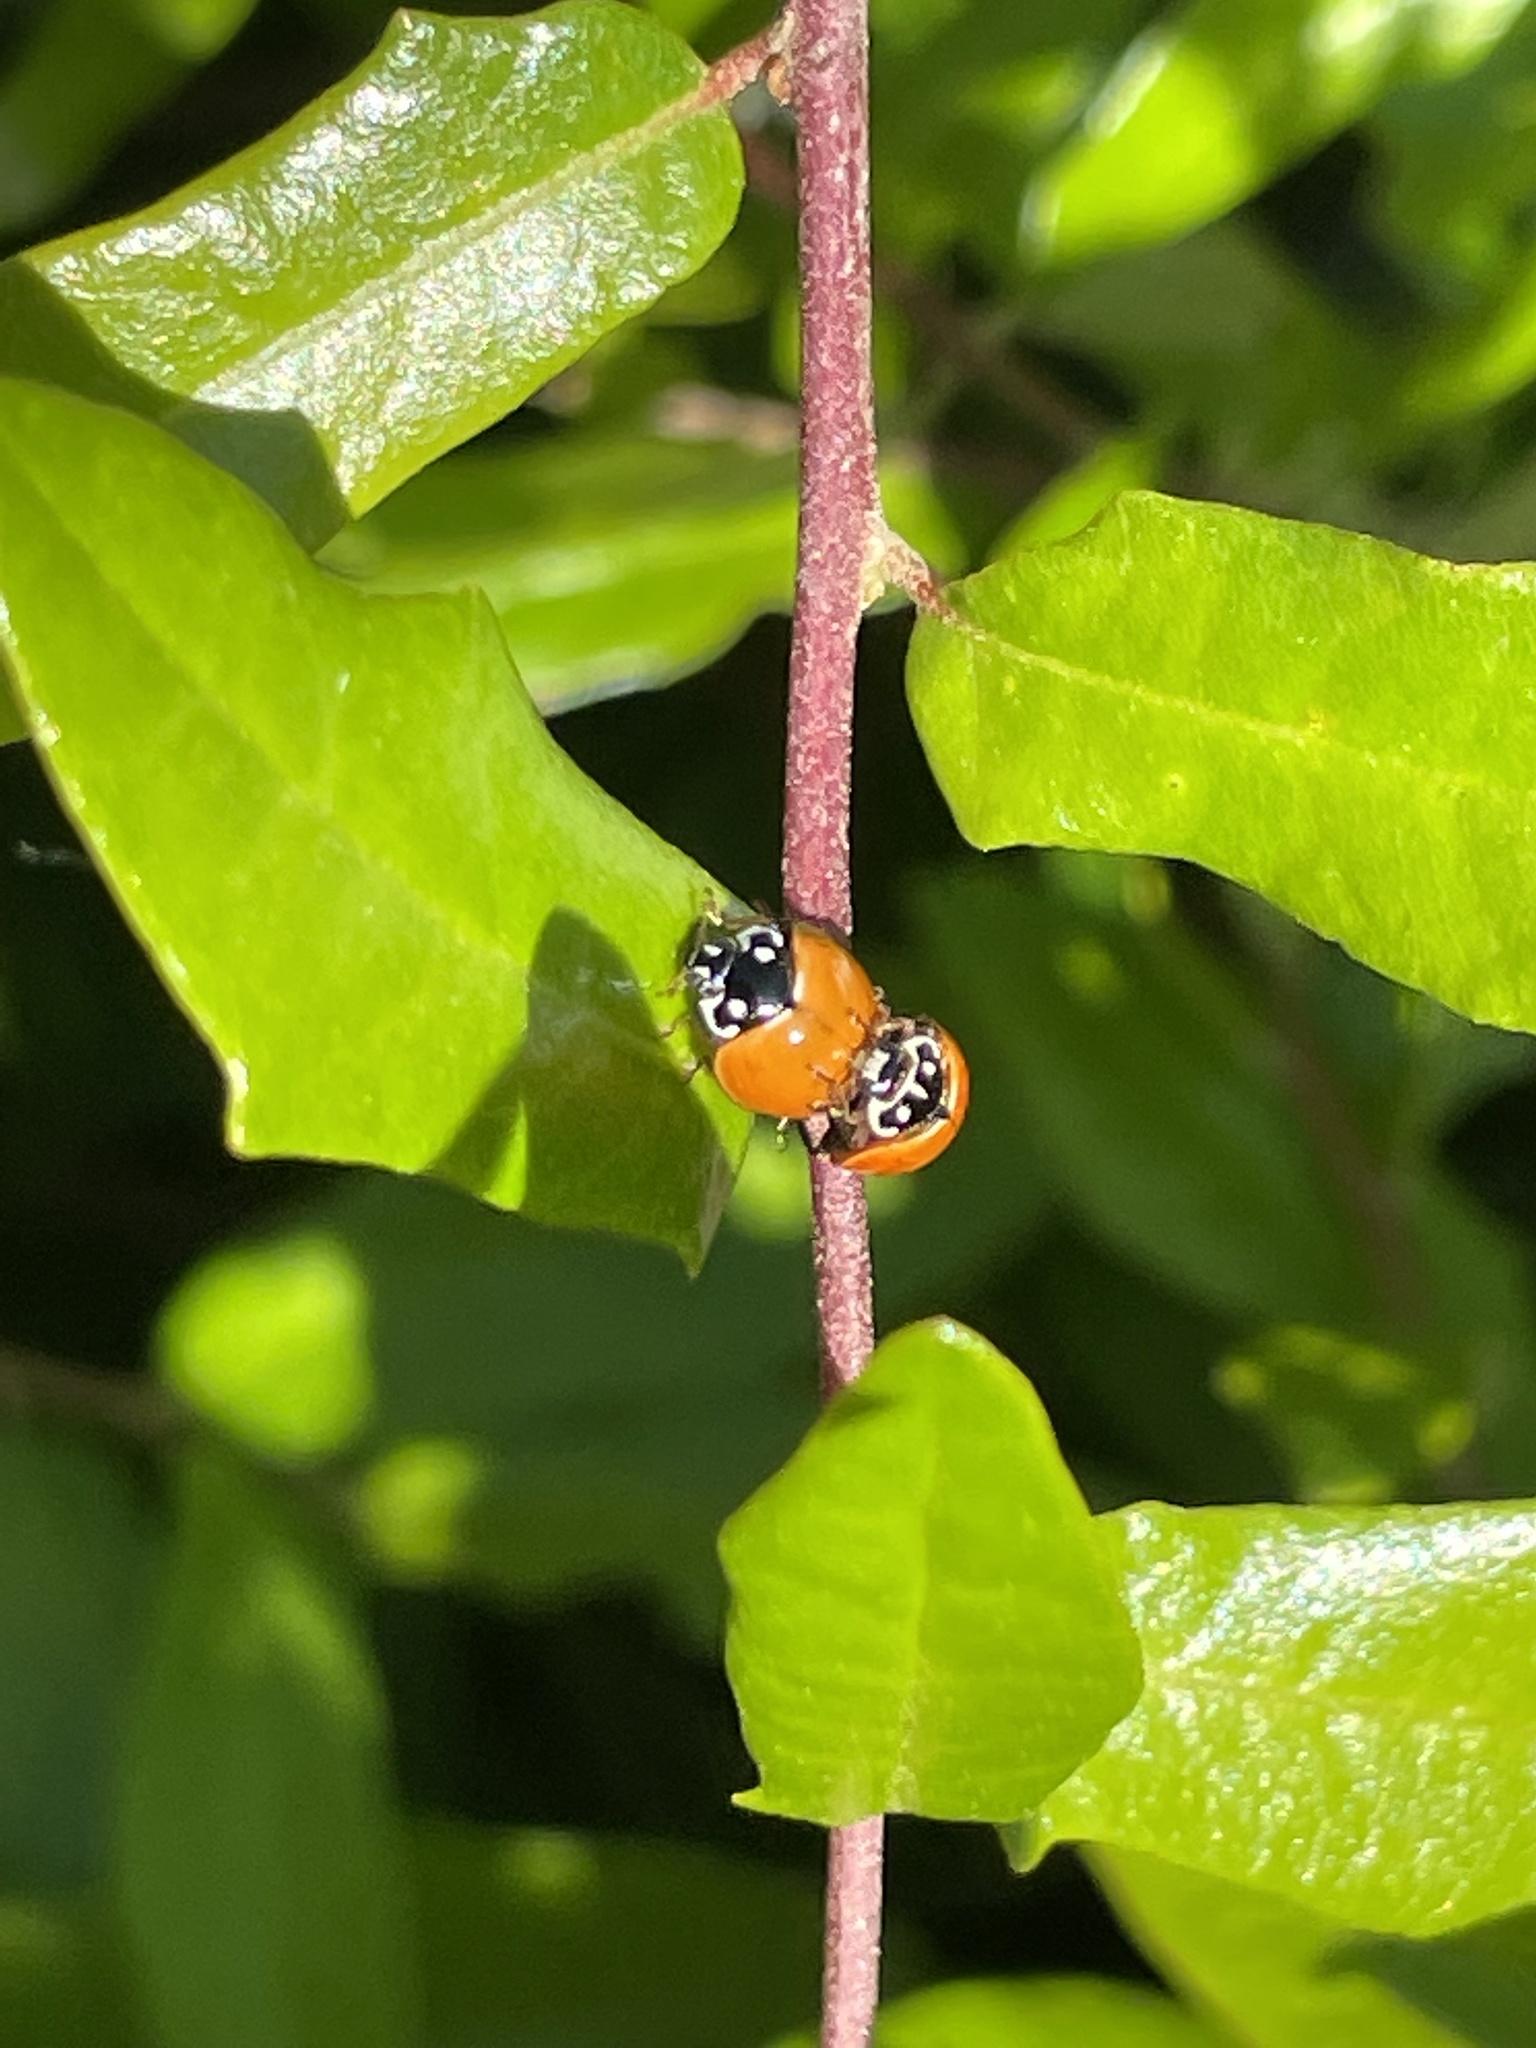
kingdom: Animalia
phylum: Arthropoda
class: Insecta
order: Coleoptera
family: Coccinellidae
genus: Cycloneda
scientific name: Cycloneda sanguinea
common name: Ladybird beetle
